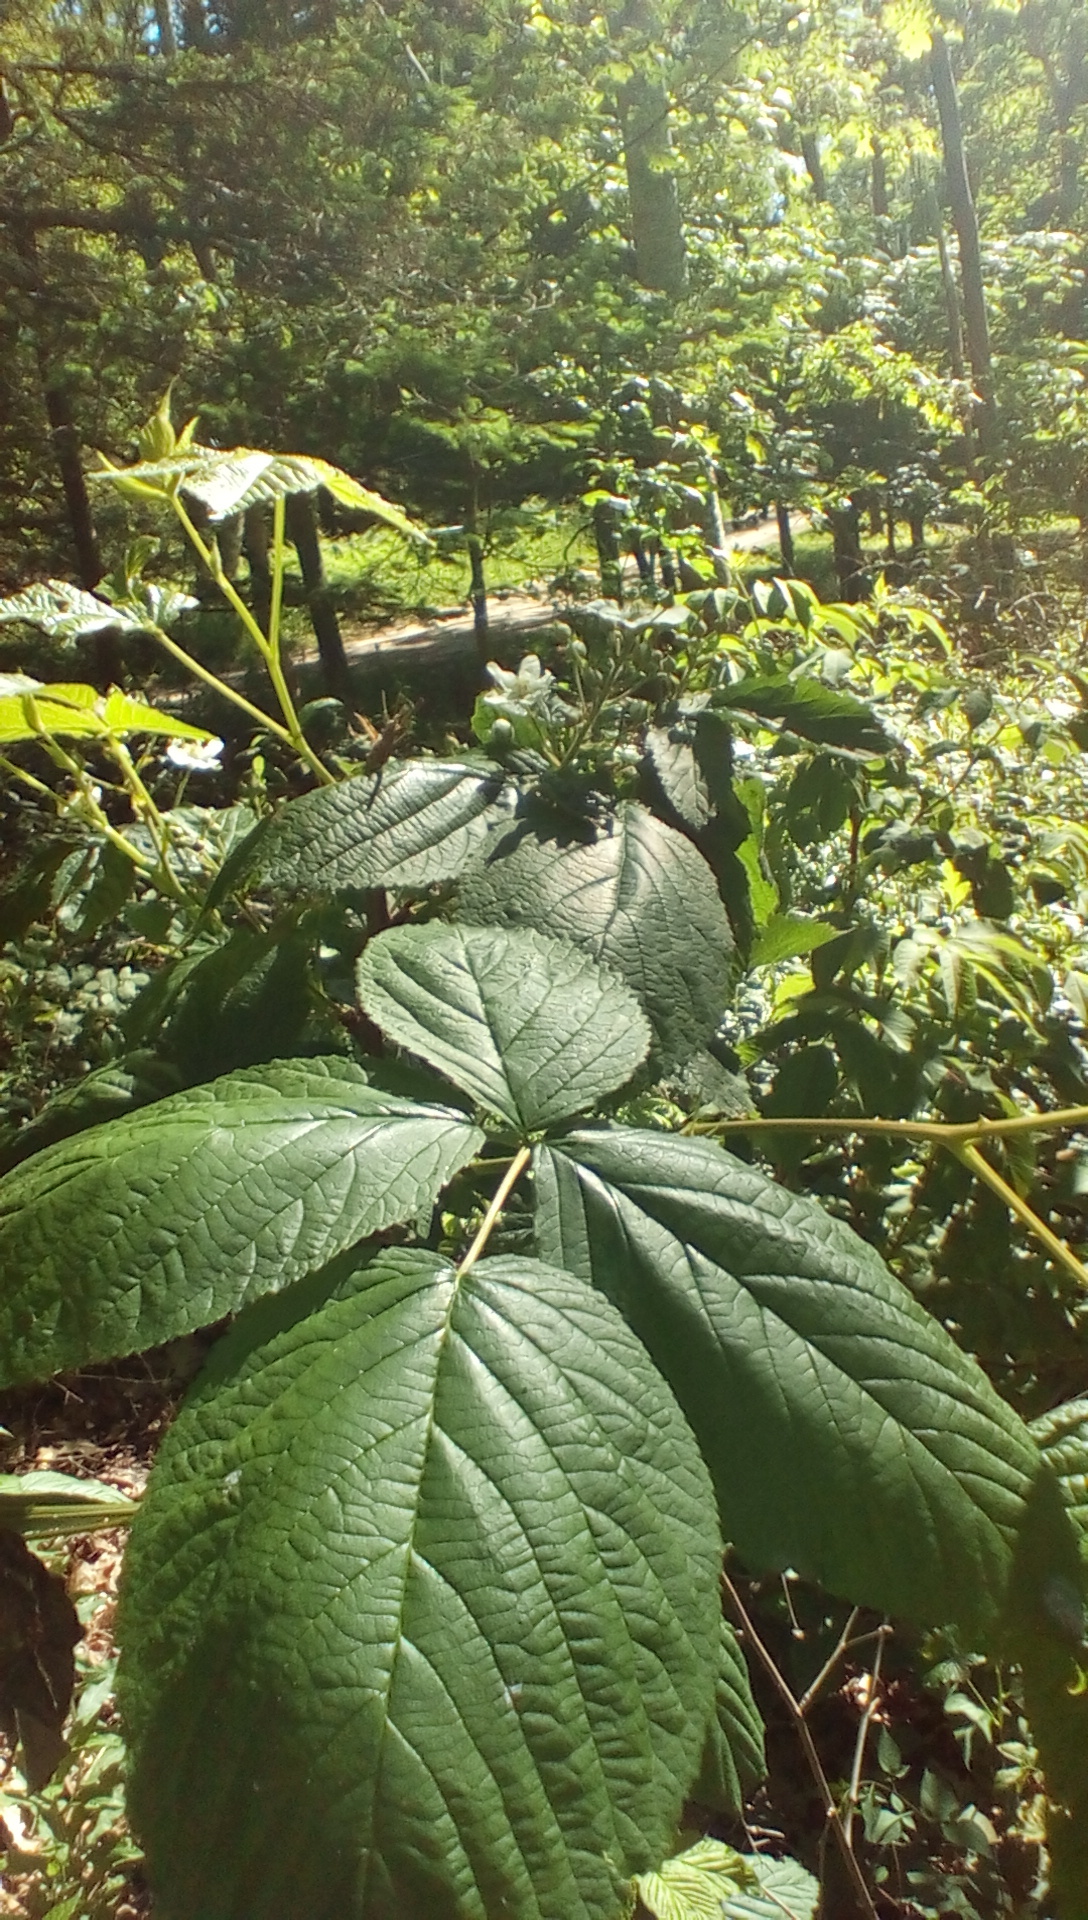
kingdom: Plantae
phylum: Tracheophyta
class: Magnoliopsida
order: Rosales
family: Rosaceae
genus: Rubus
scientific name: Rubus
